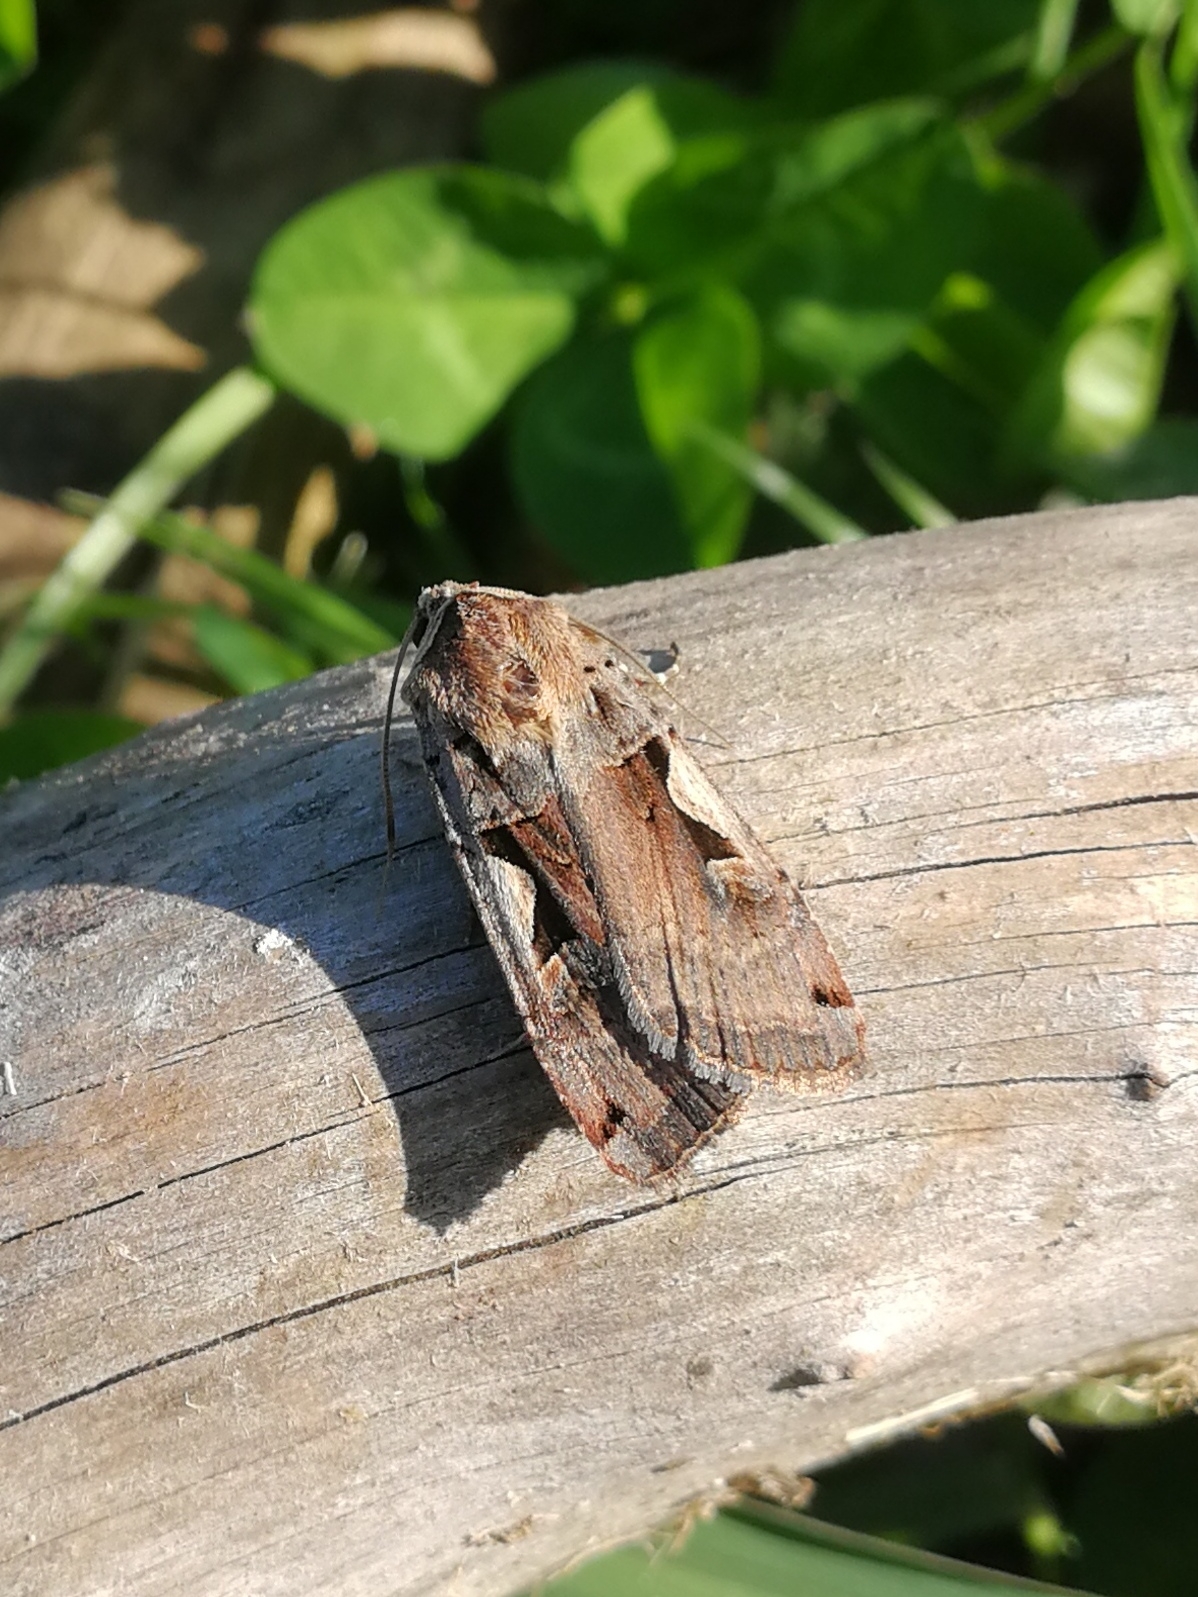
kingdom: Animalia
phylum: Arthropoda
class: Insecta
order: Lepidoptera
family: Noctuidae
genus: Xestia
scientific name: Xestia c-nigrum
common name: Setaceous hebrew character
